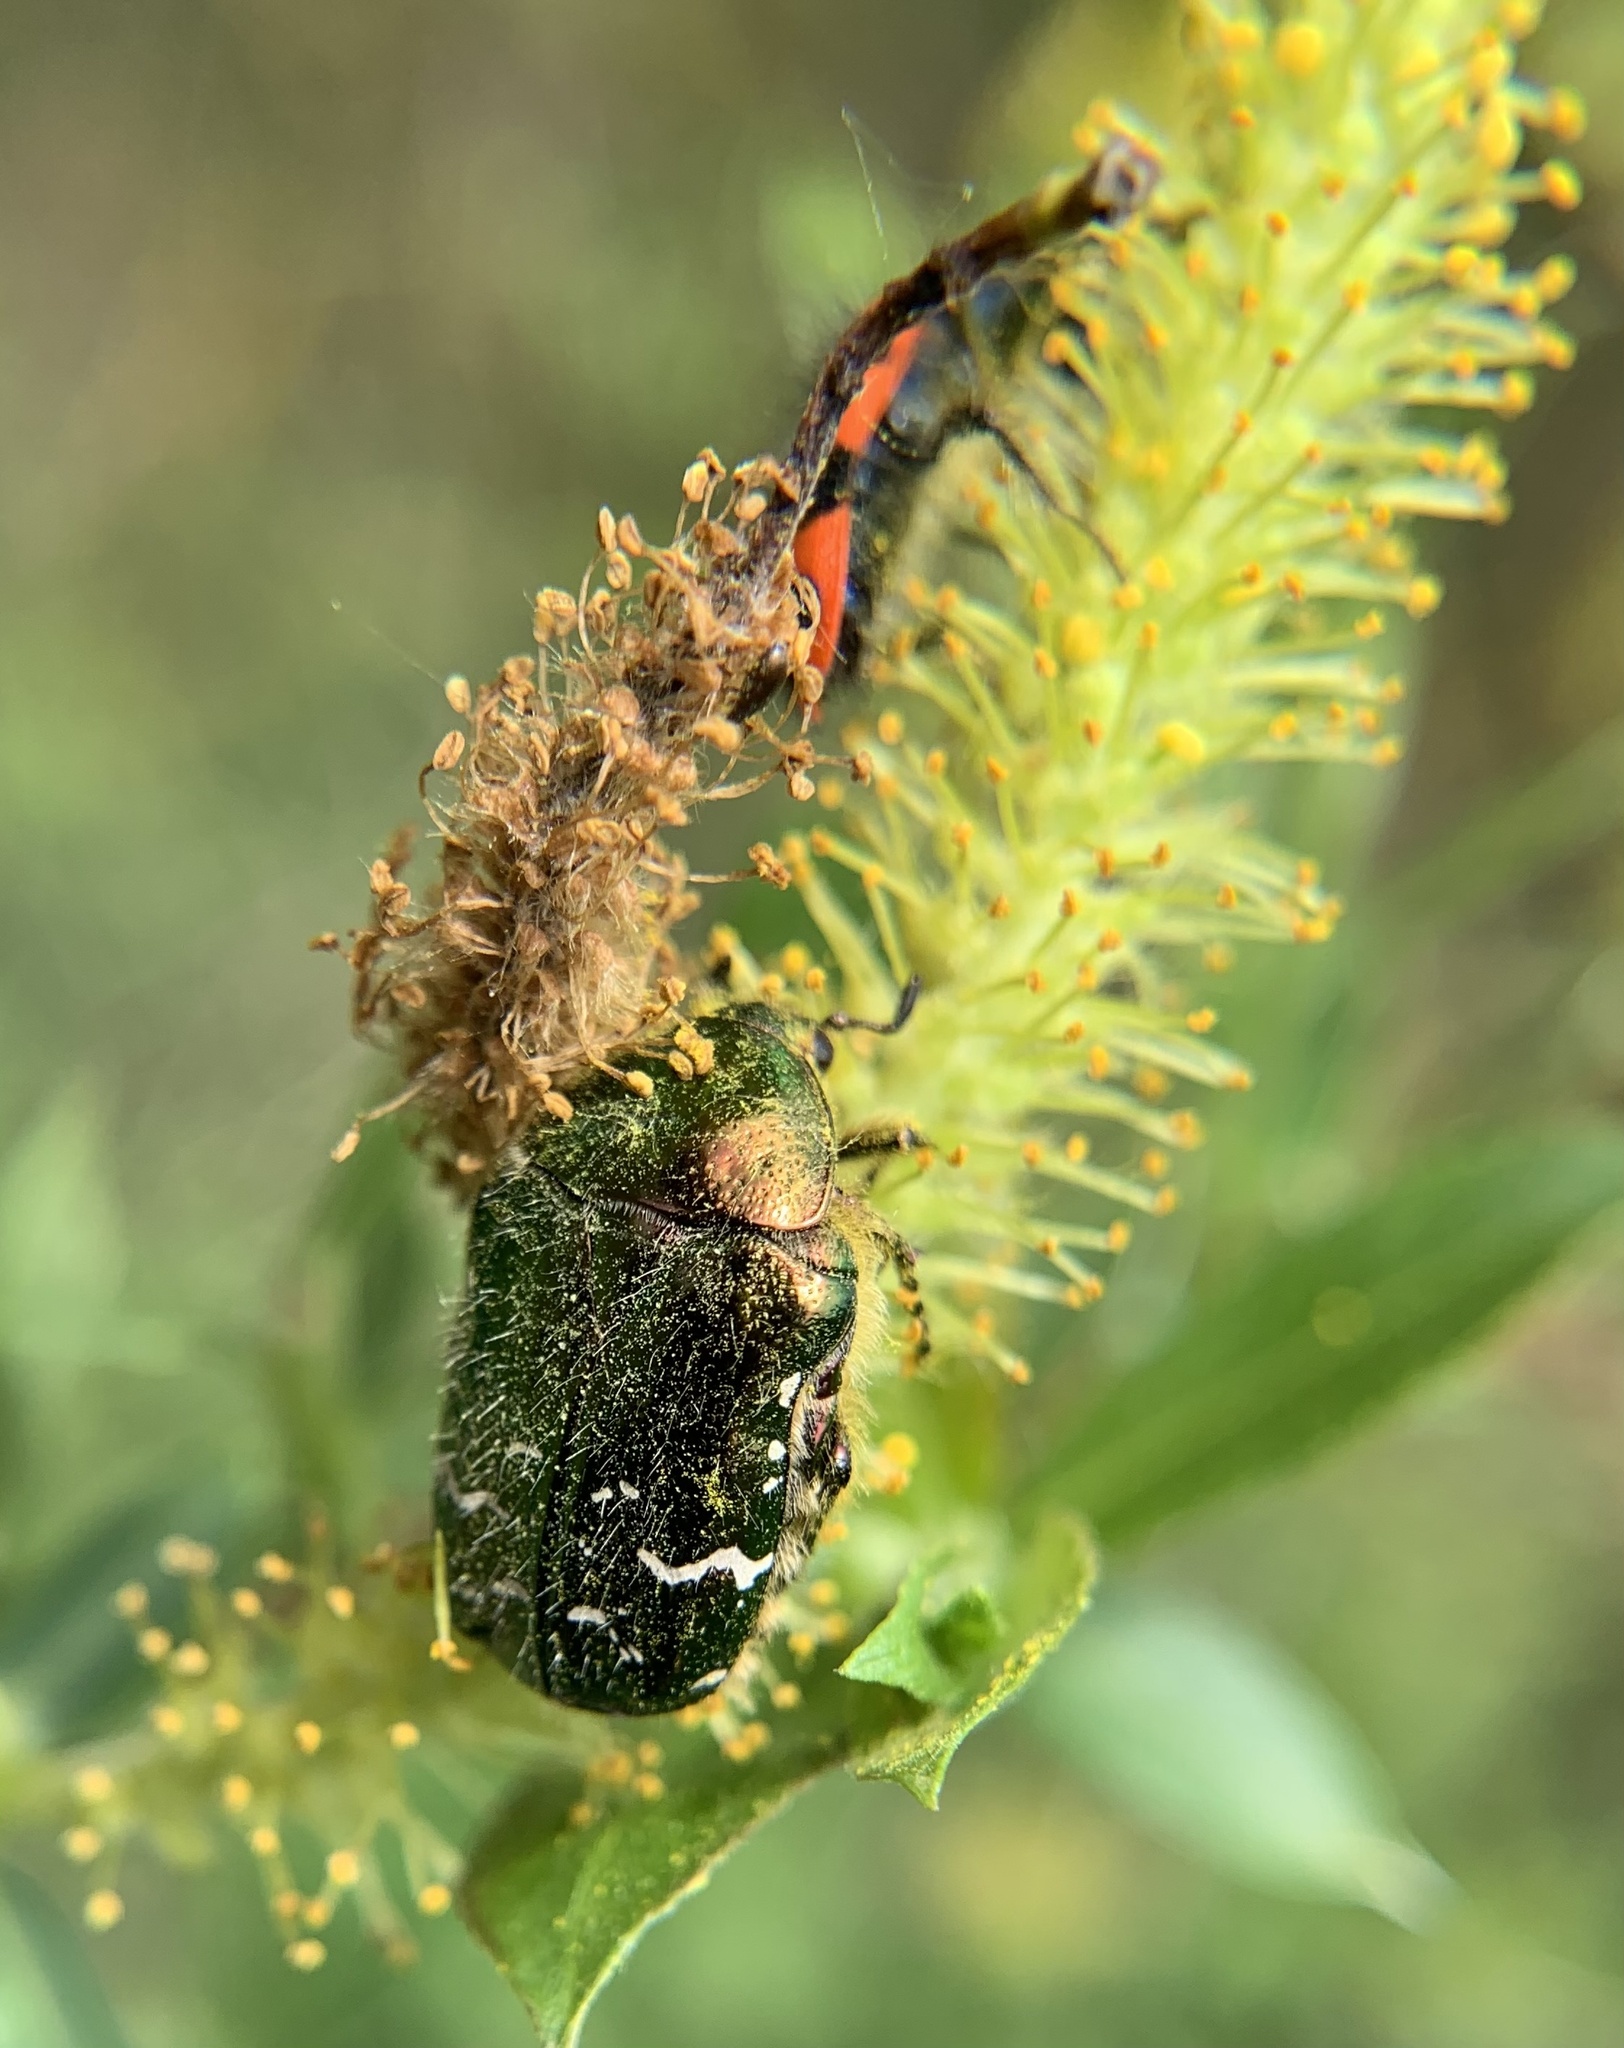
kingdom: Animalia
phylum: Arthropoda
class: Insecta
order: Coleoptera
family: Scarabaeidae
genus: Cetonia
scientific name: Cetonia aurata
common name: Rose chafer
